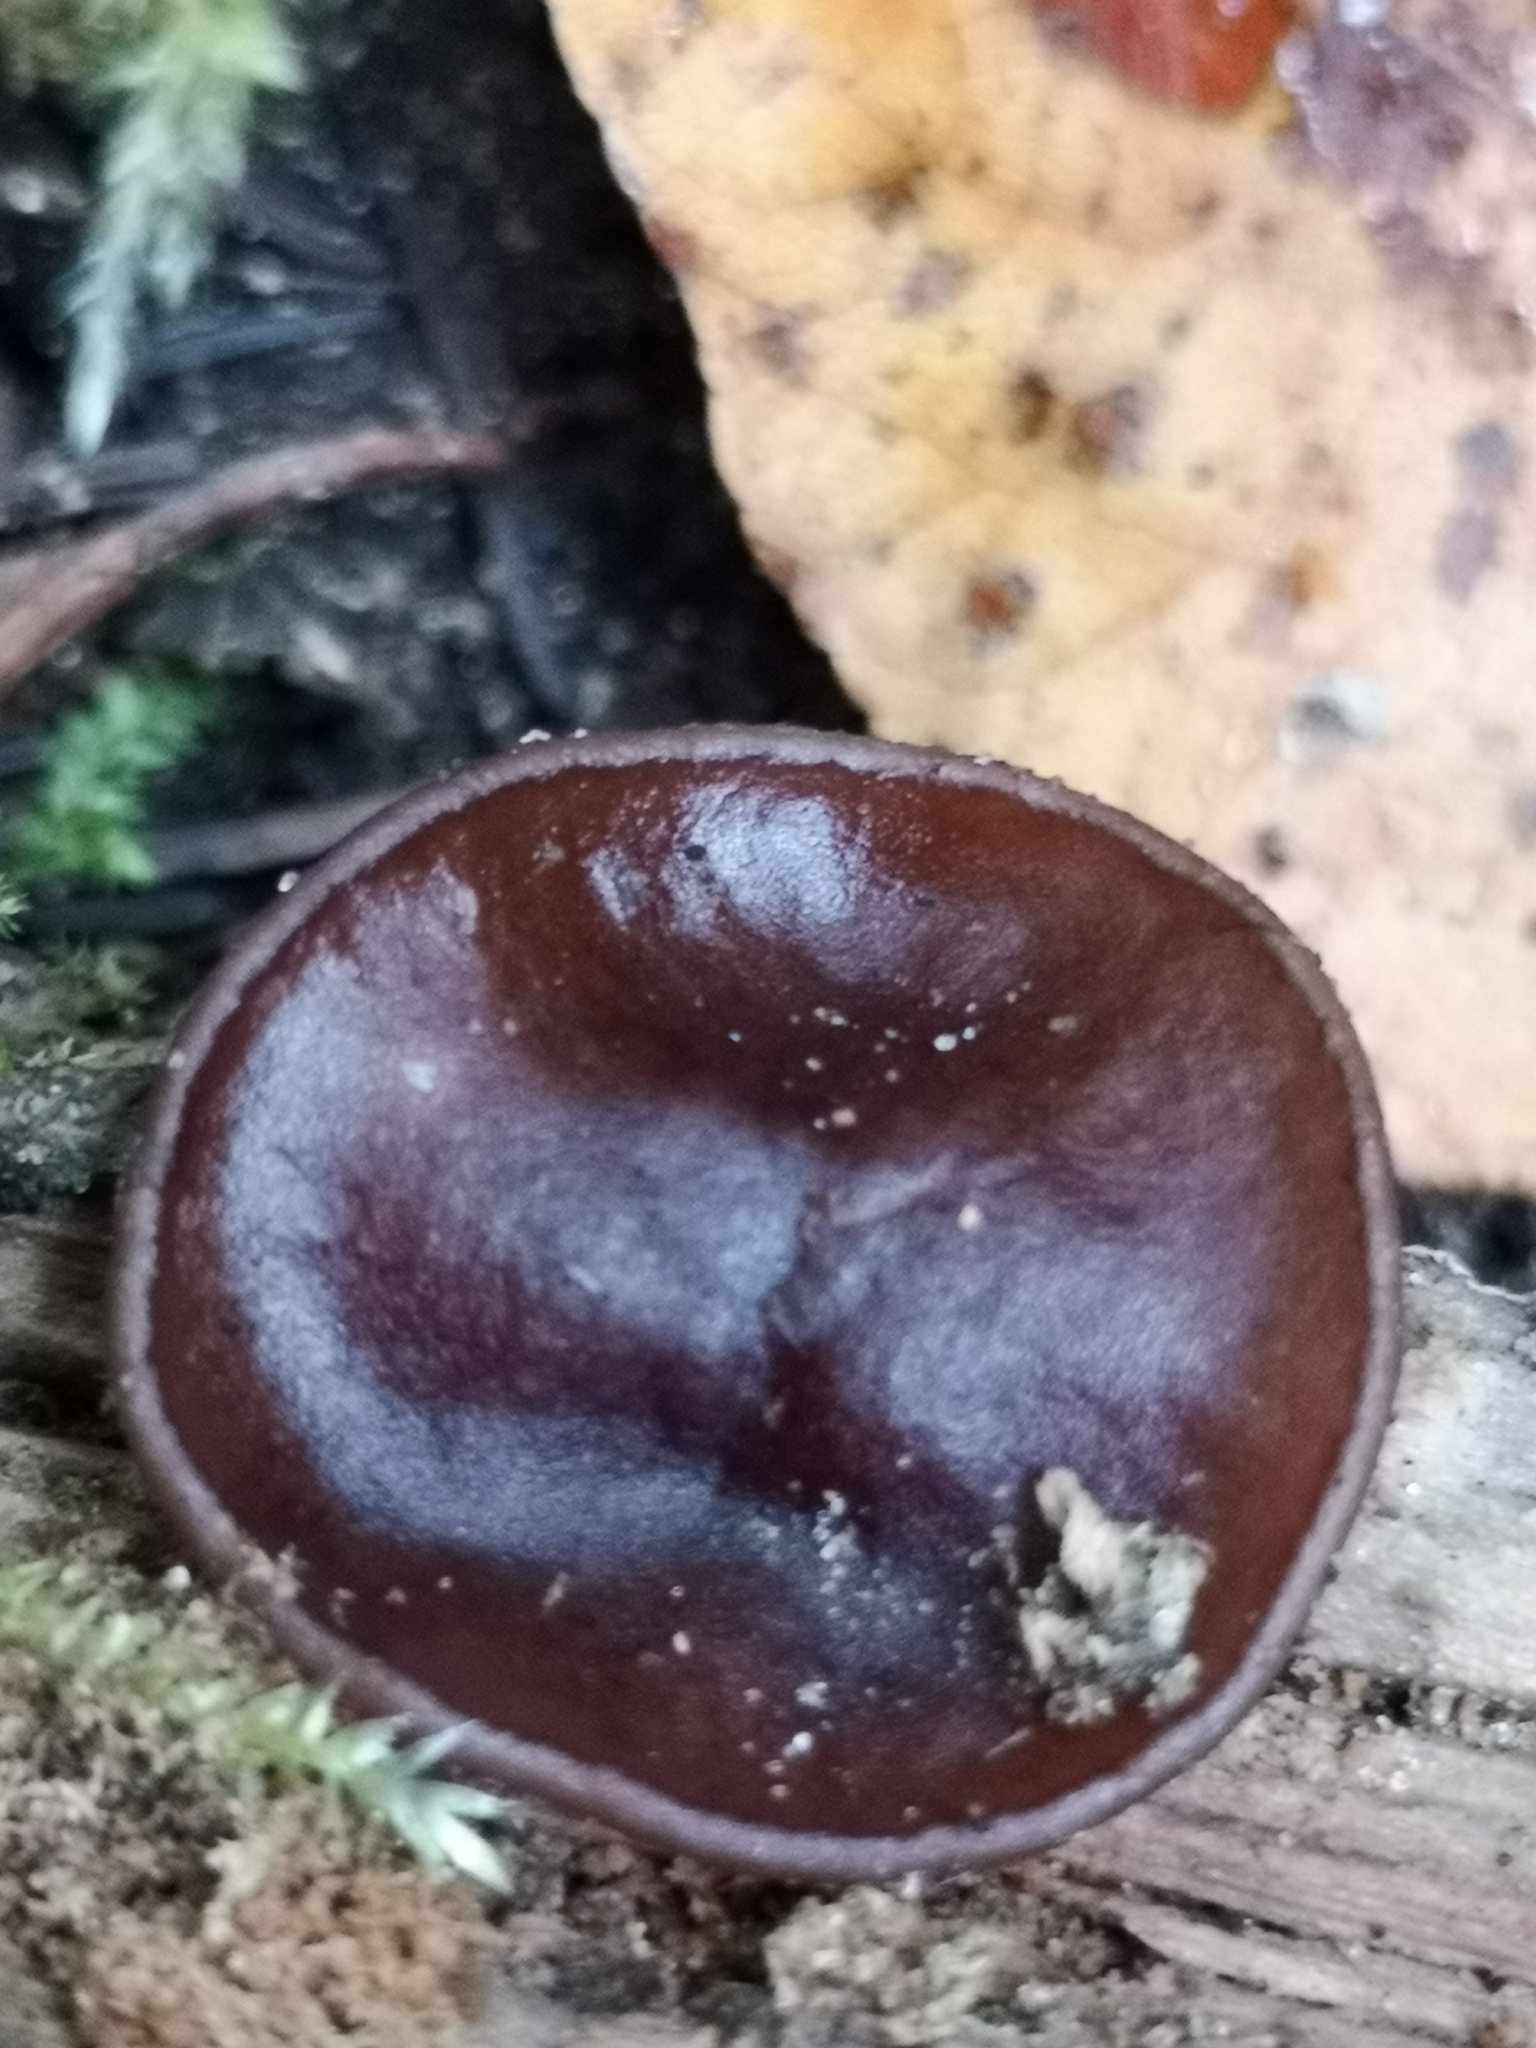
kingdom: Fungi
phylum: Ascomycota
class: Pezizomycetes
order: Pezizales
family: Pezizaceae
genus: Pachyella
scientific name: Pachyella clypeata
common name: Copper penny fungus
